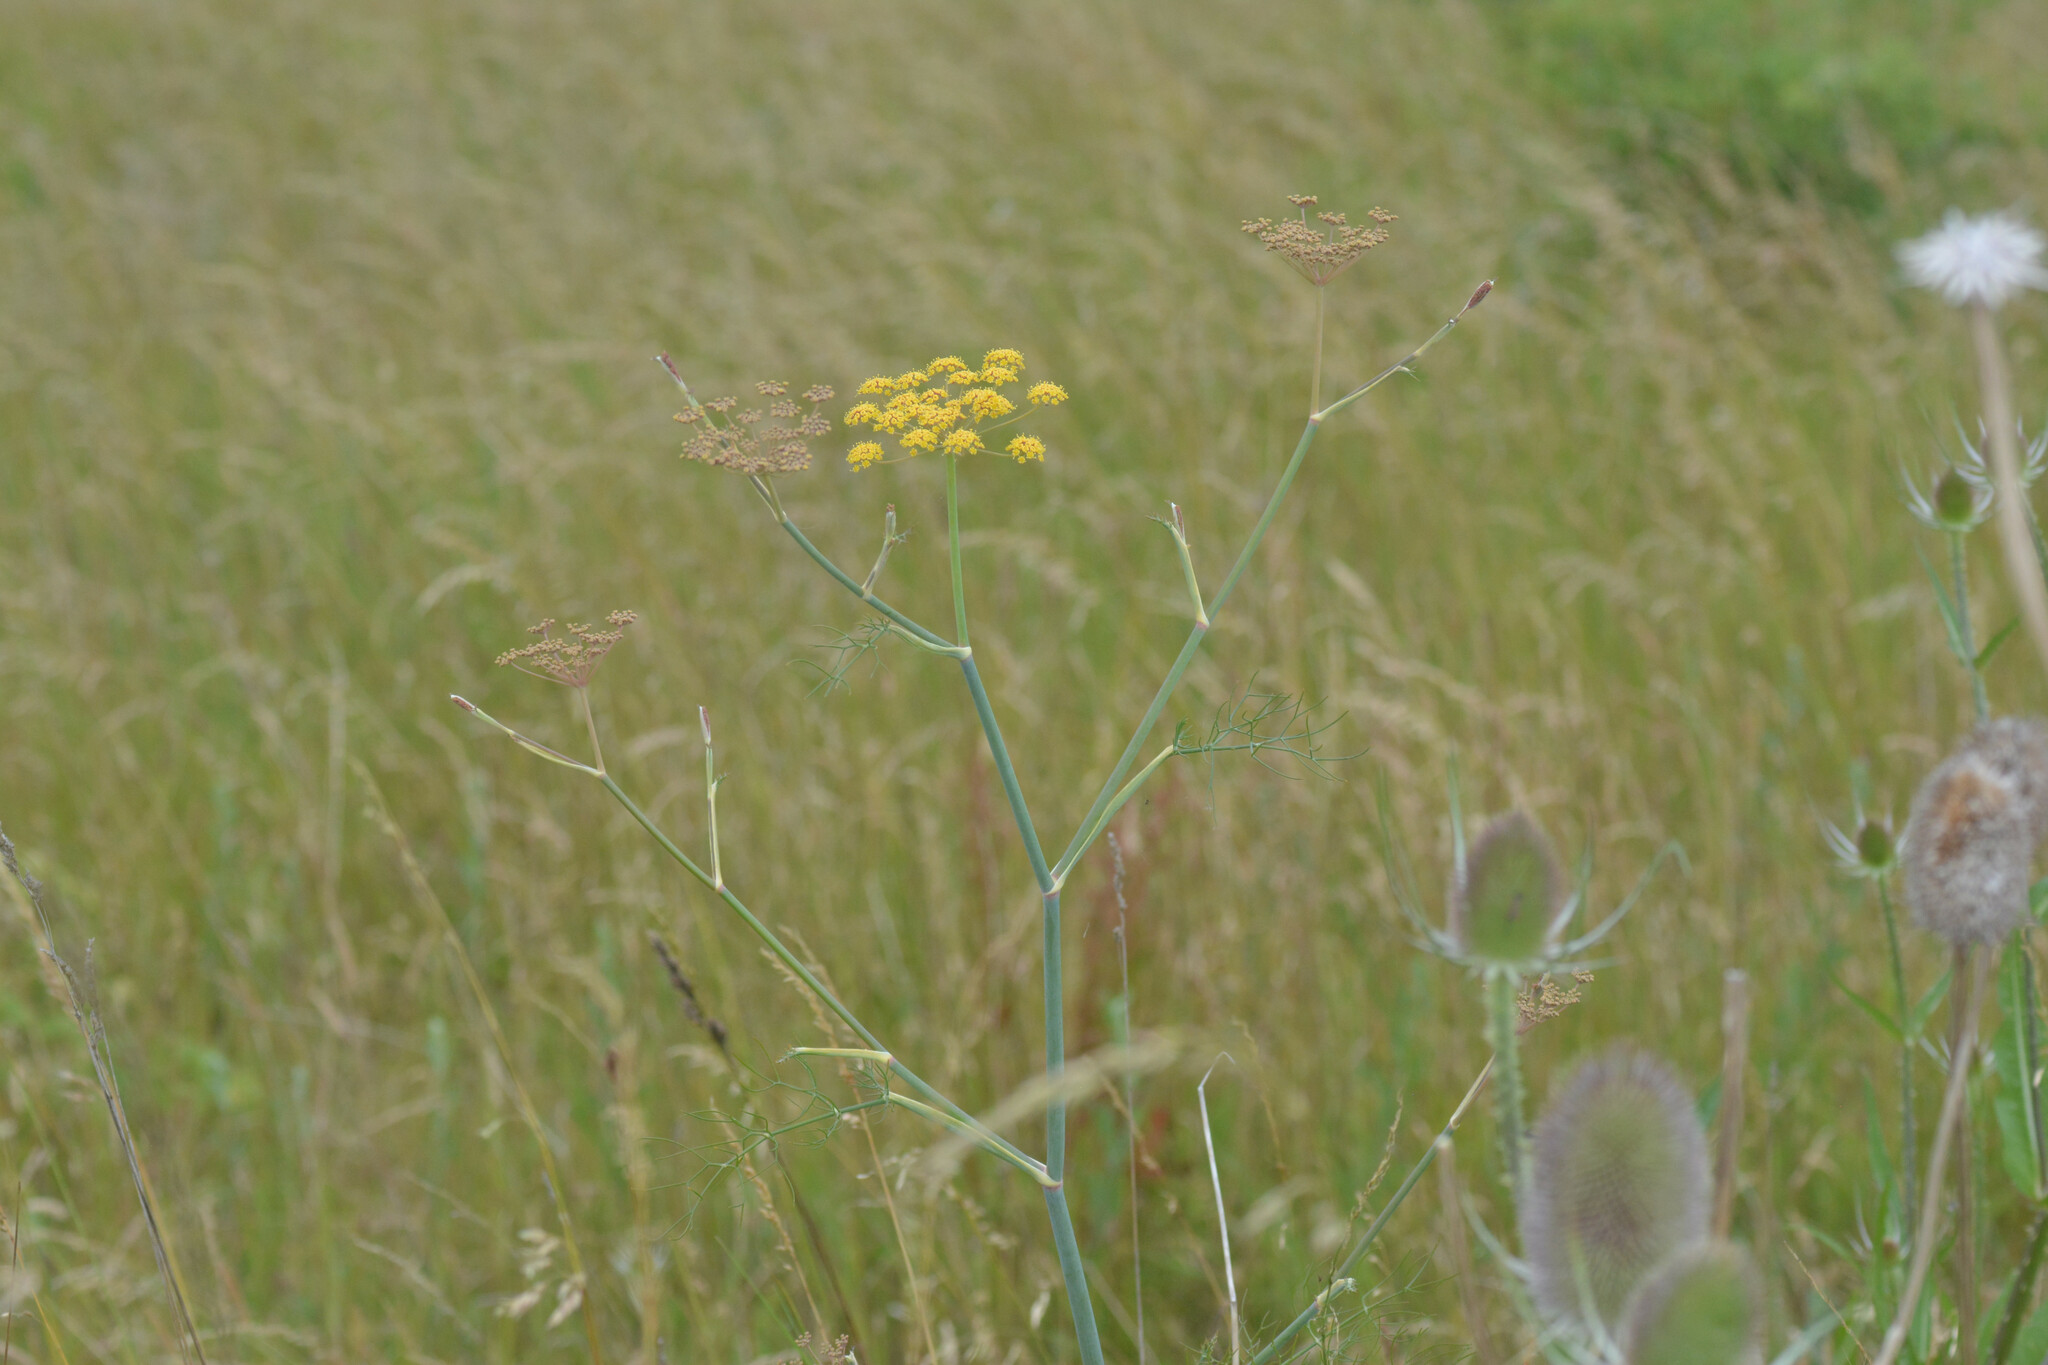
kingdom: Plantae
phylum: Tracheophyta
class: Magnoliopsida
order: Apiales
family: Apiaceae
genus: Foeniculum
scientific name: Foeniculum vulgare
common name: Fennel
